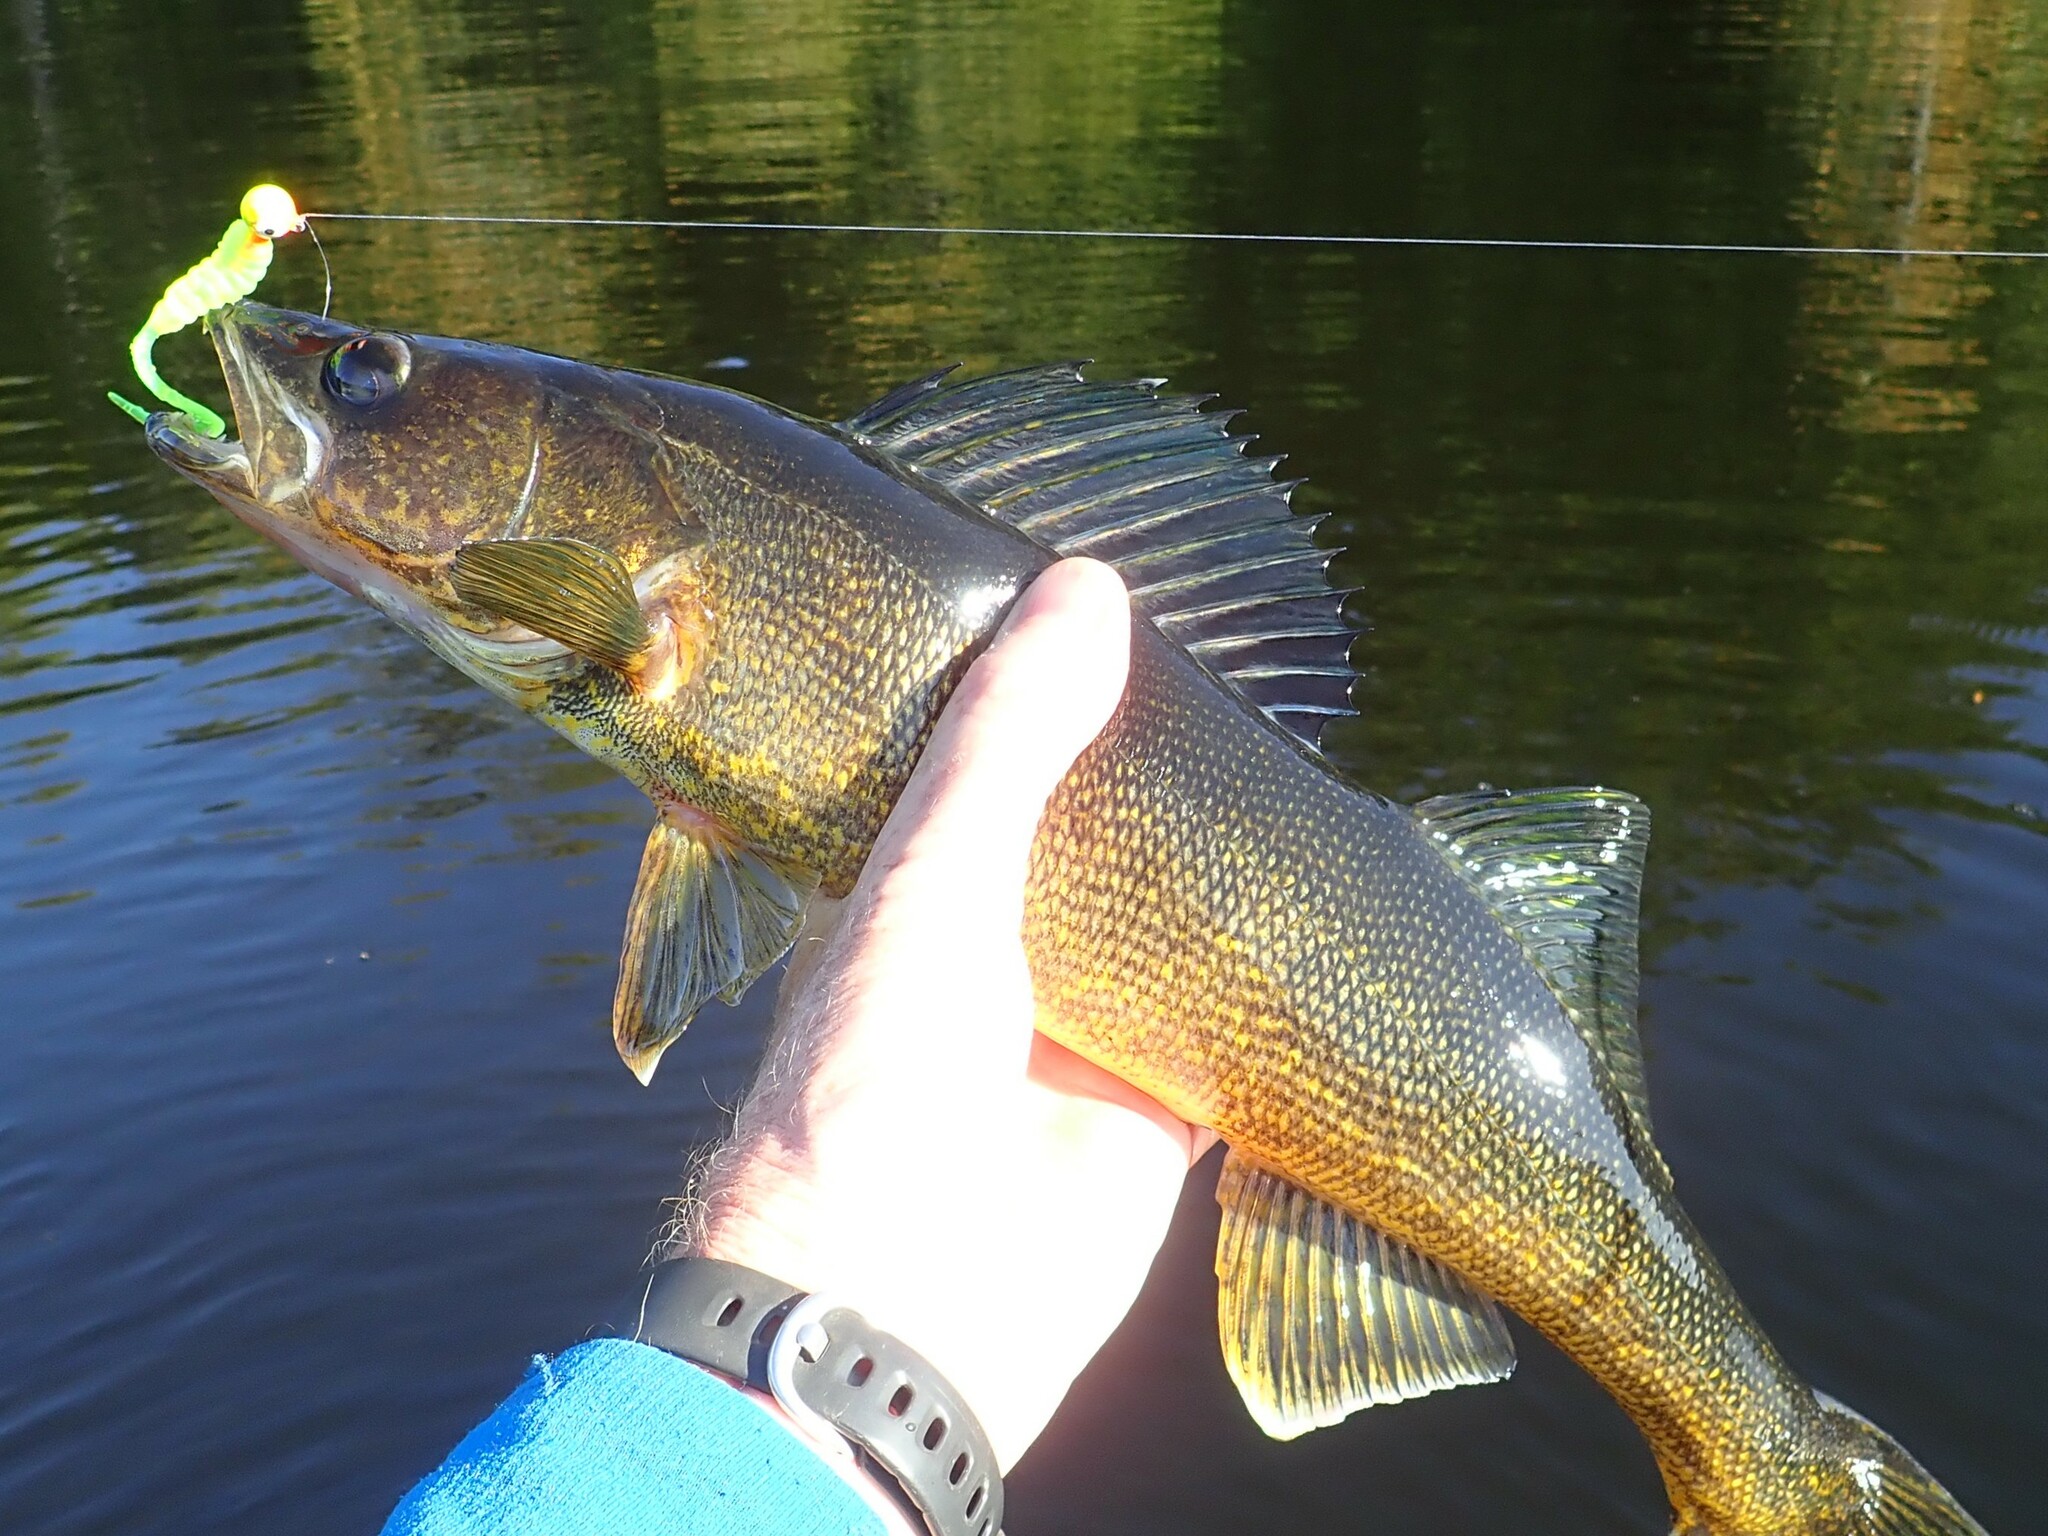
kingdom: Animalia
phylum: Chordata
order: Perciformes
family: Percidae
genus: Sander
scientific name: Sander vitreus
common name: Walleye
